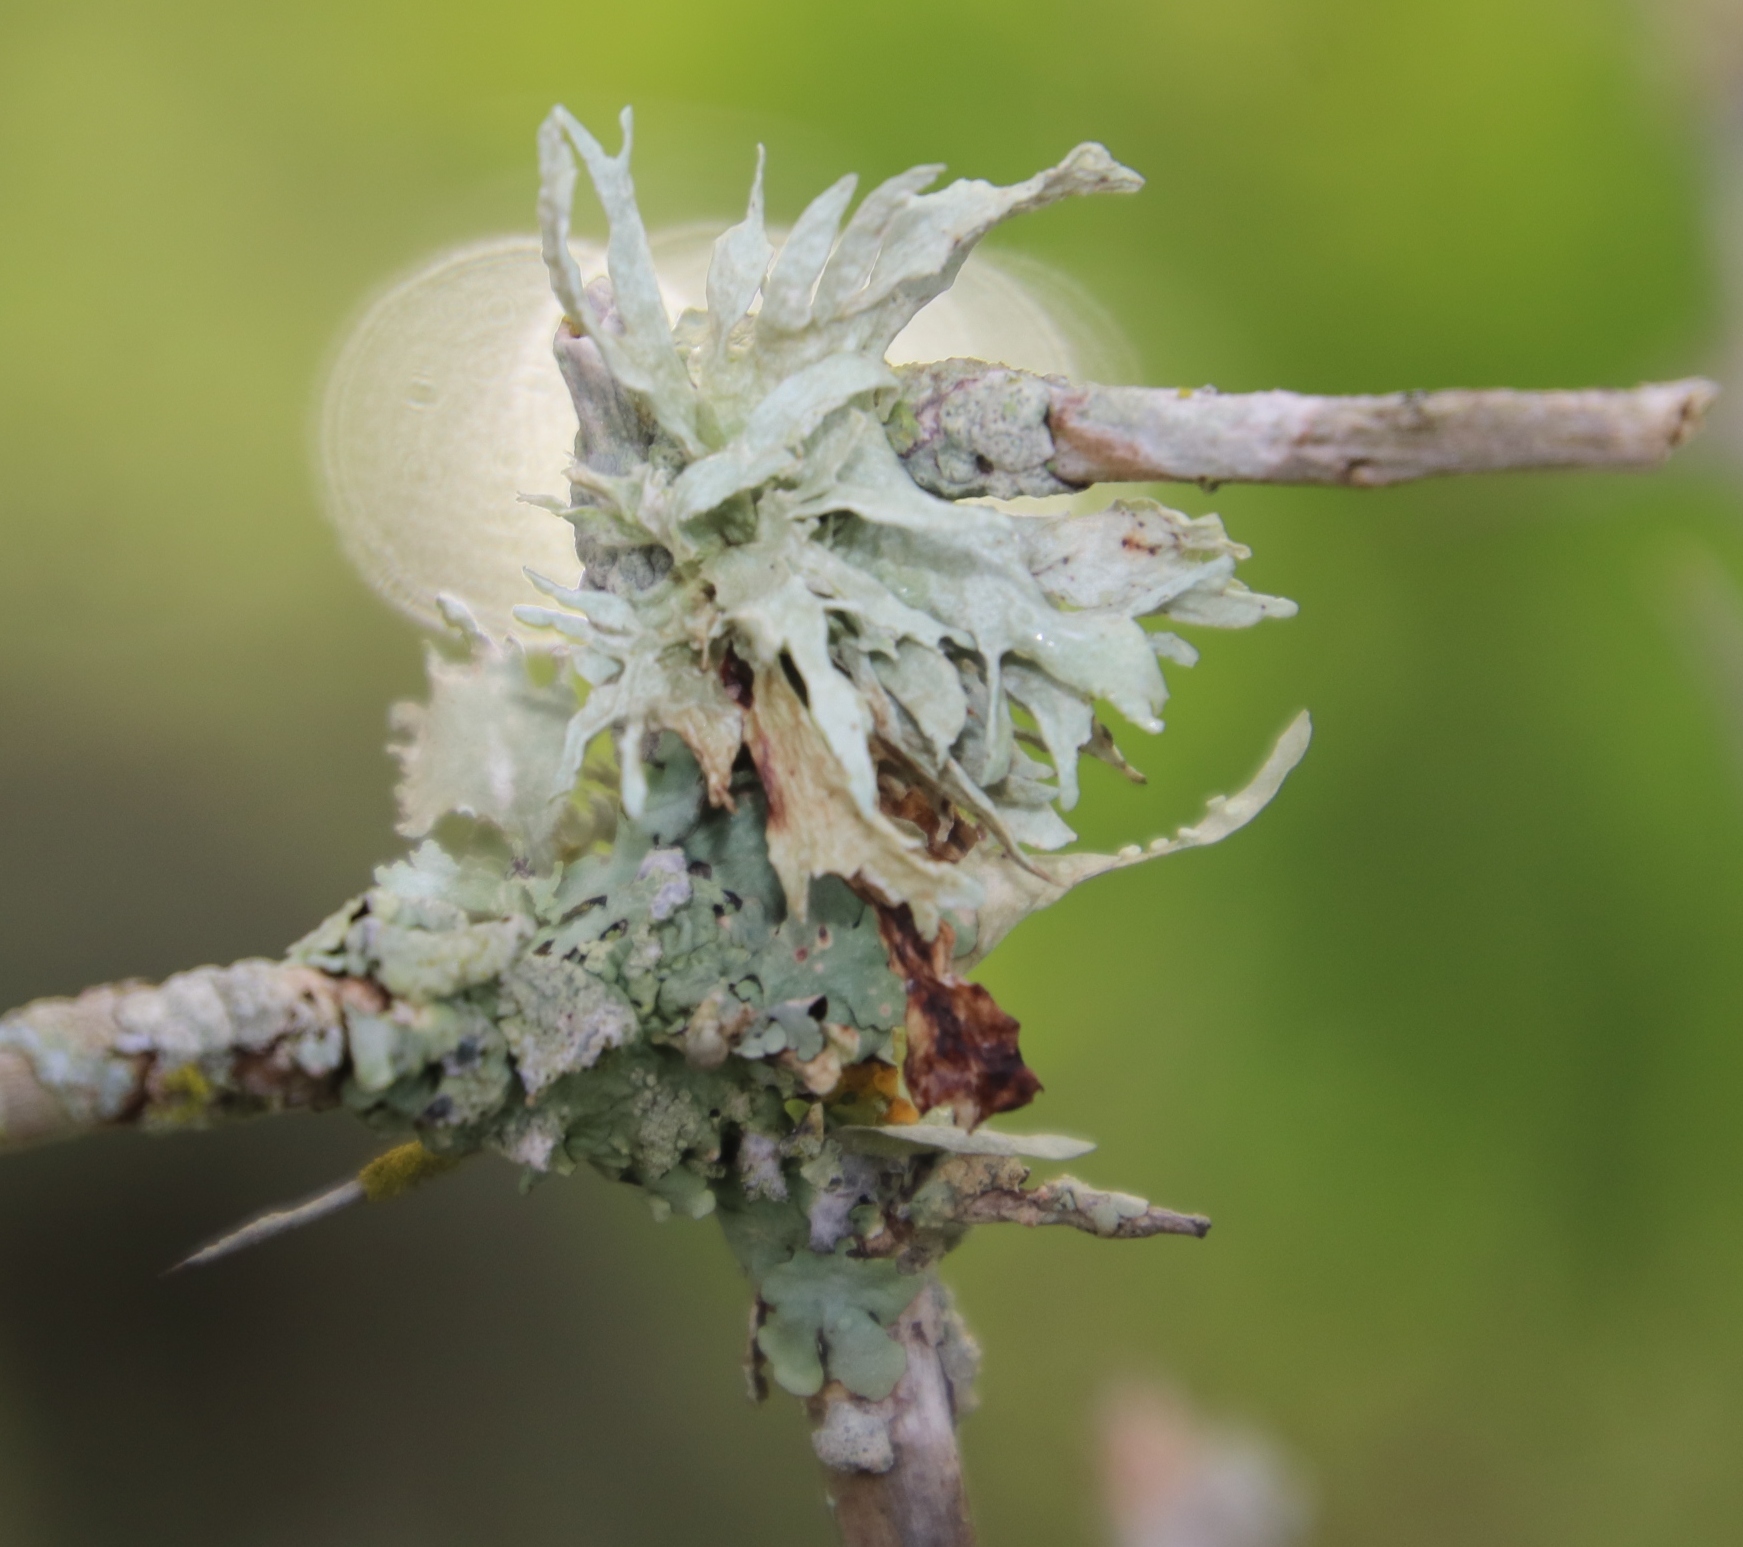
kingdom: Fungi
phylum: Ascomycota
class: Lecanoromycetes
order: Lecanorales
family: Ramalinaceae
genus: Ramalina
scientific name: Ramalina celastri
